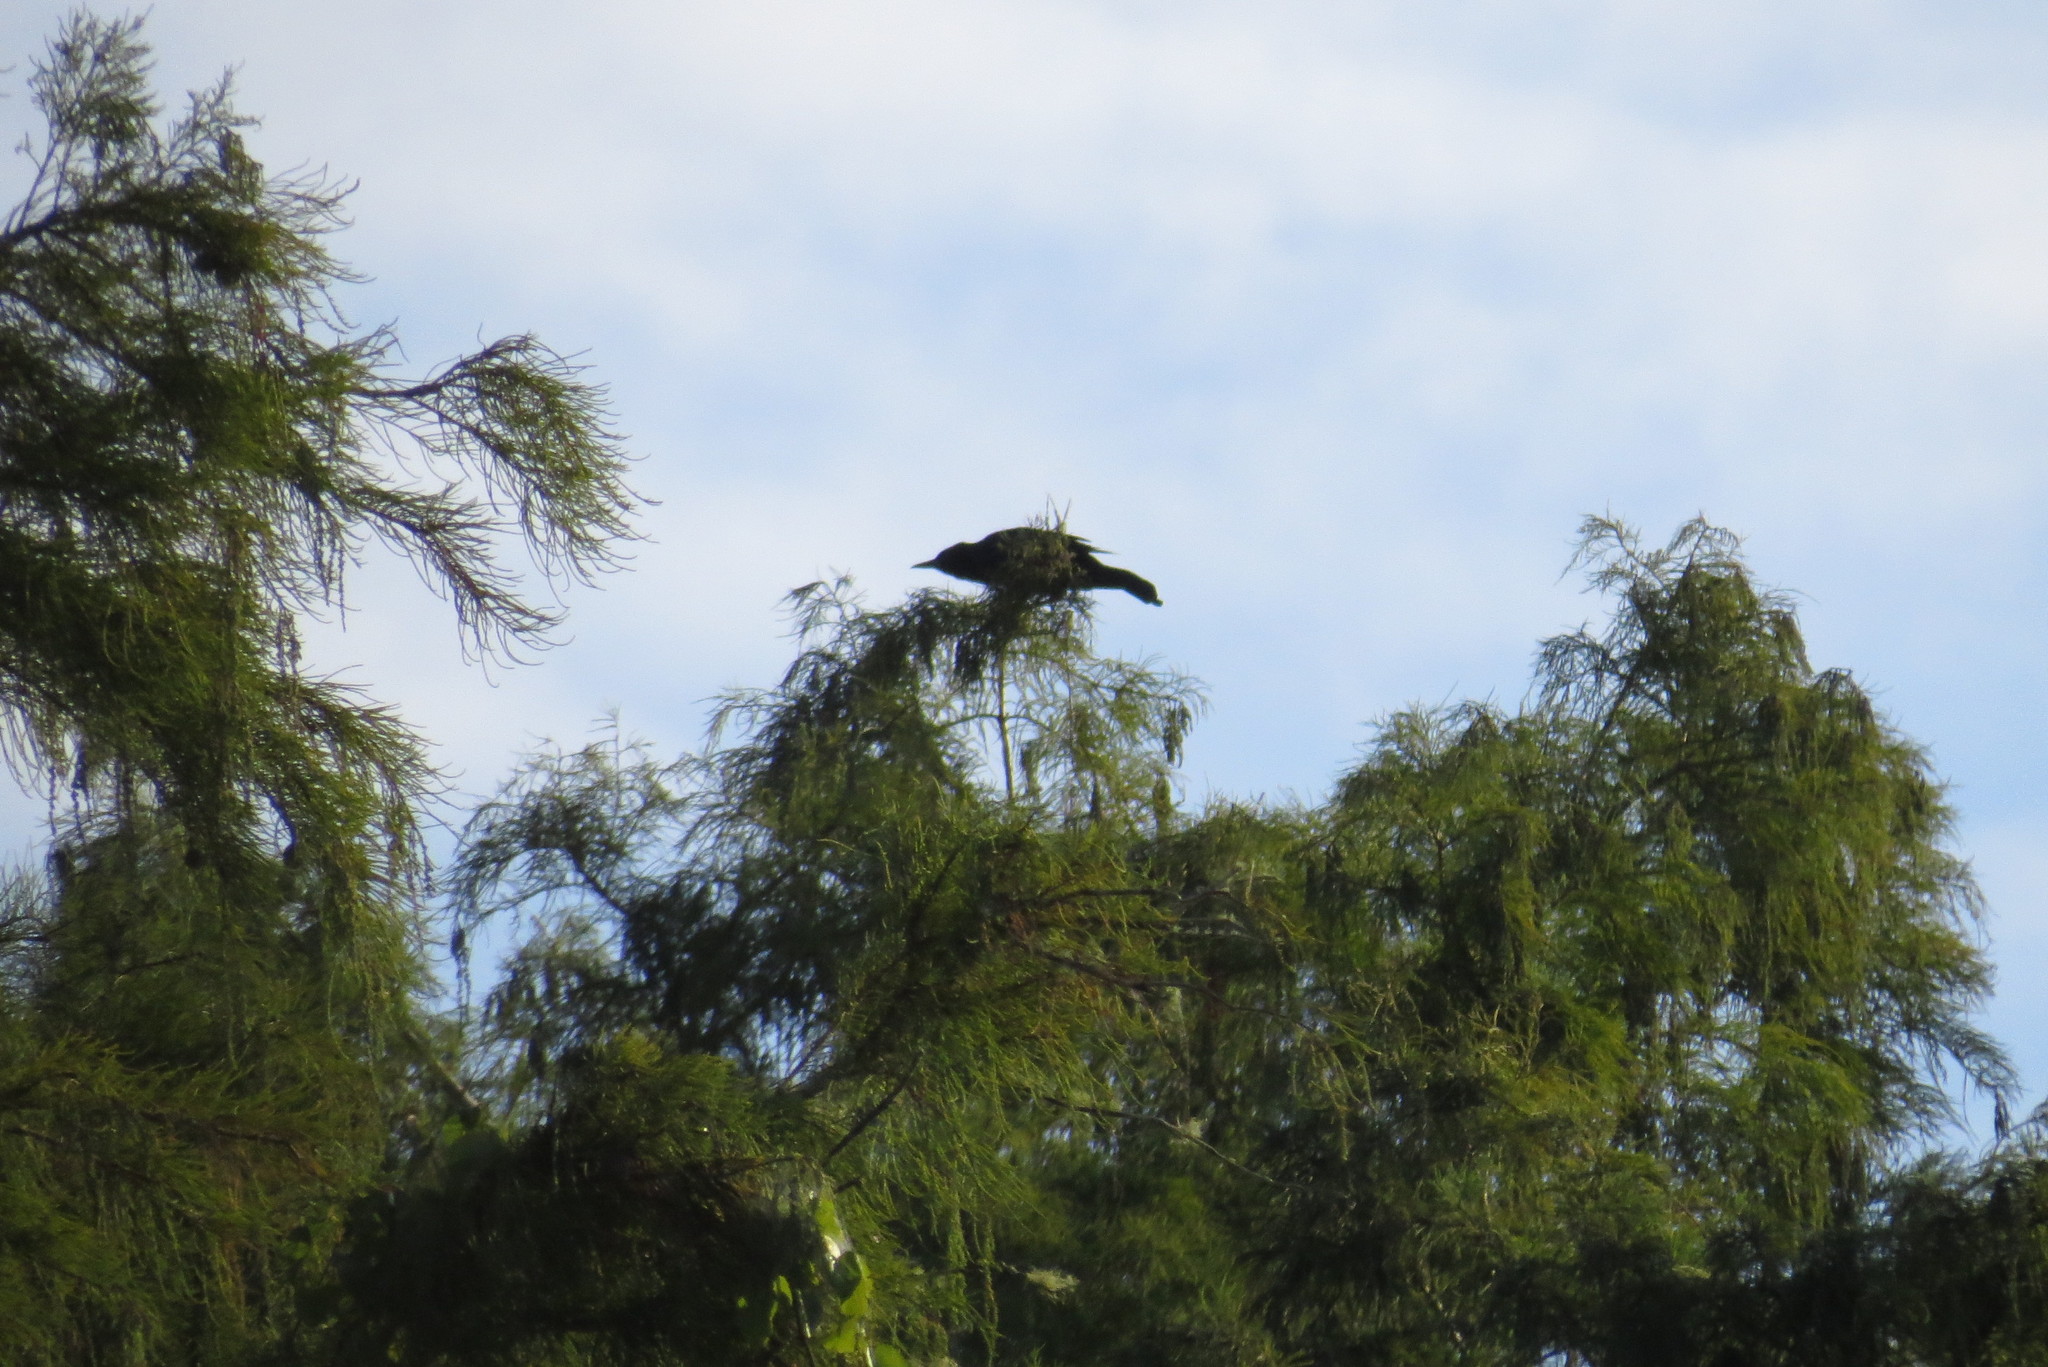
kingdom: Animalia
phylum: Chordata
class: Aves
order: Passeriformes
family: Icteridae
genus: Quiscalus
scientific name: Quiscalus major
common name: Boat-tailed grackle
